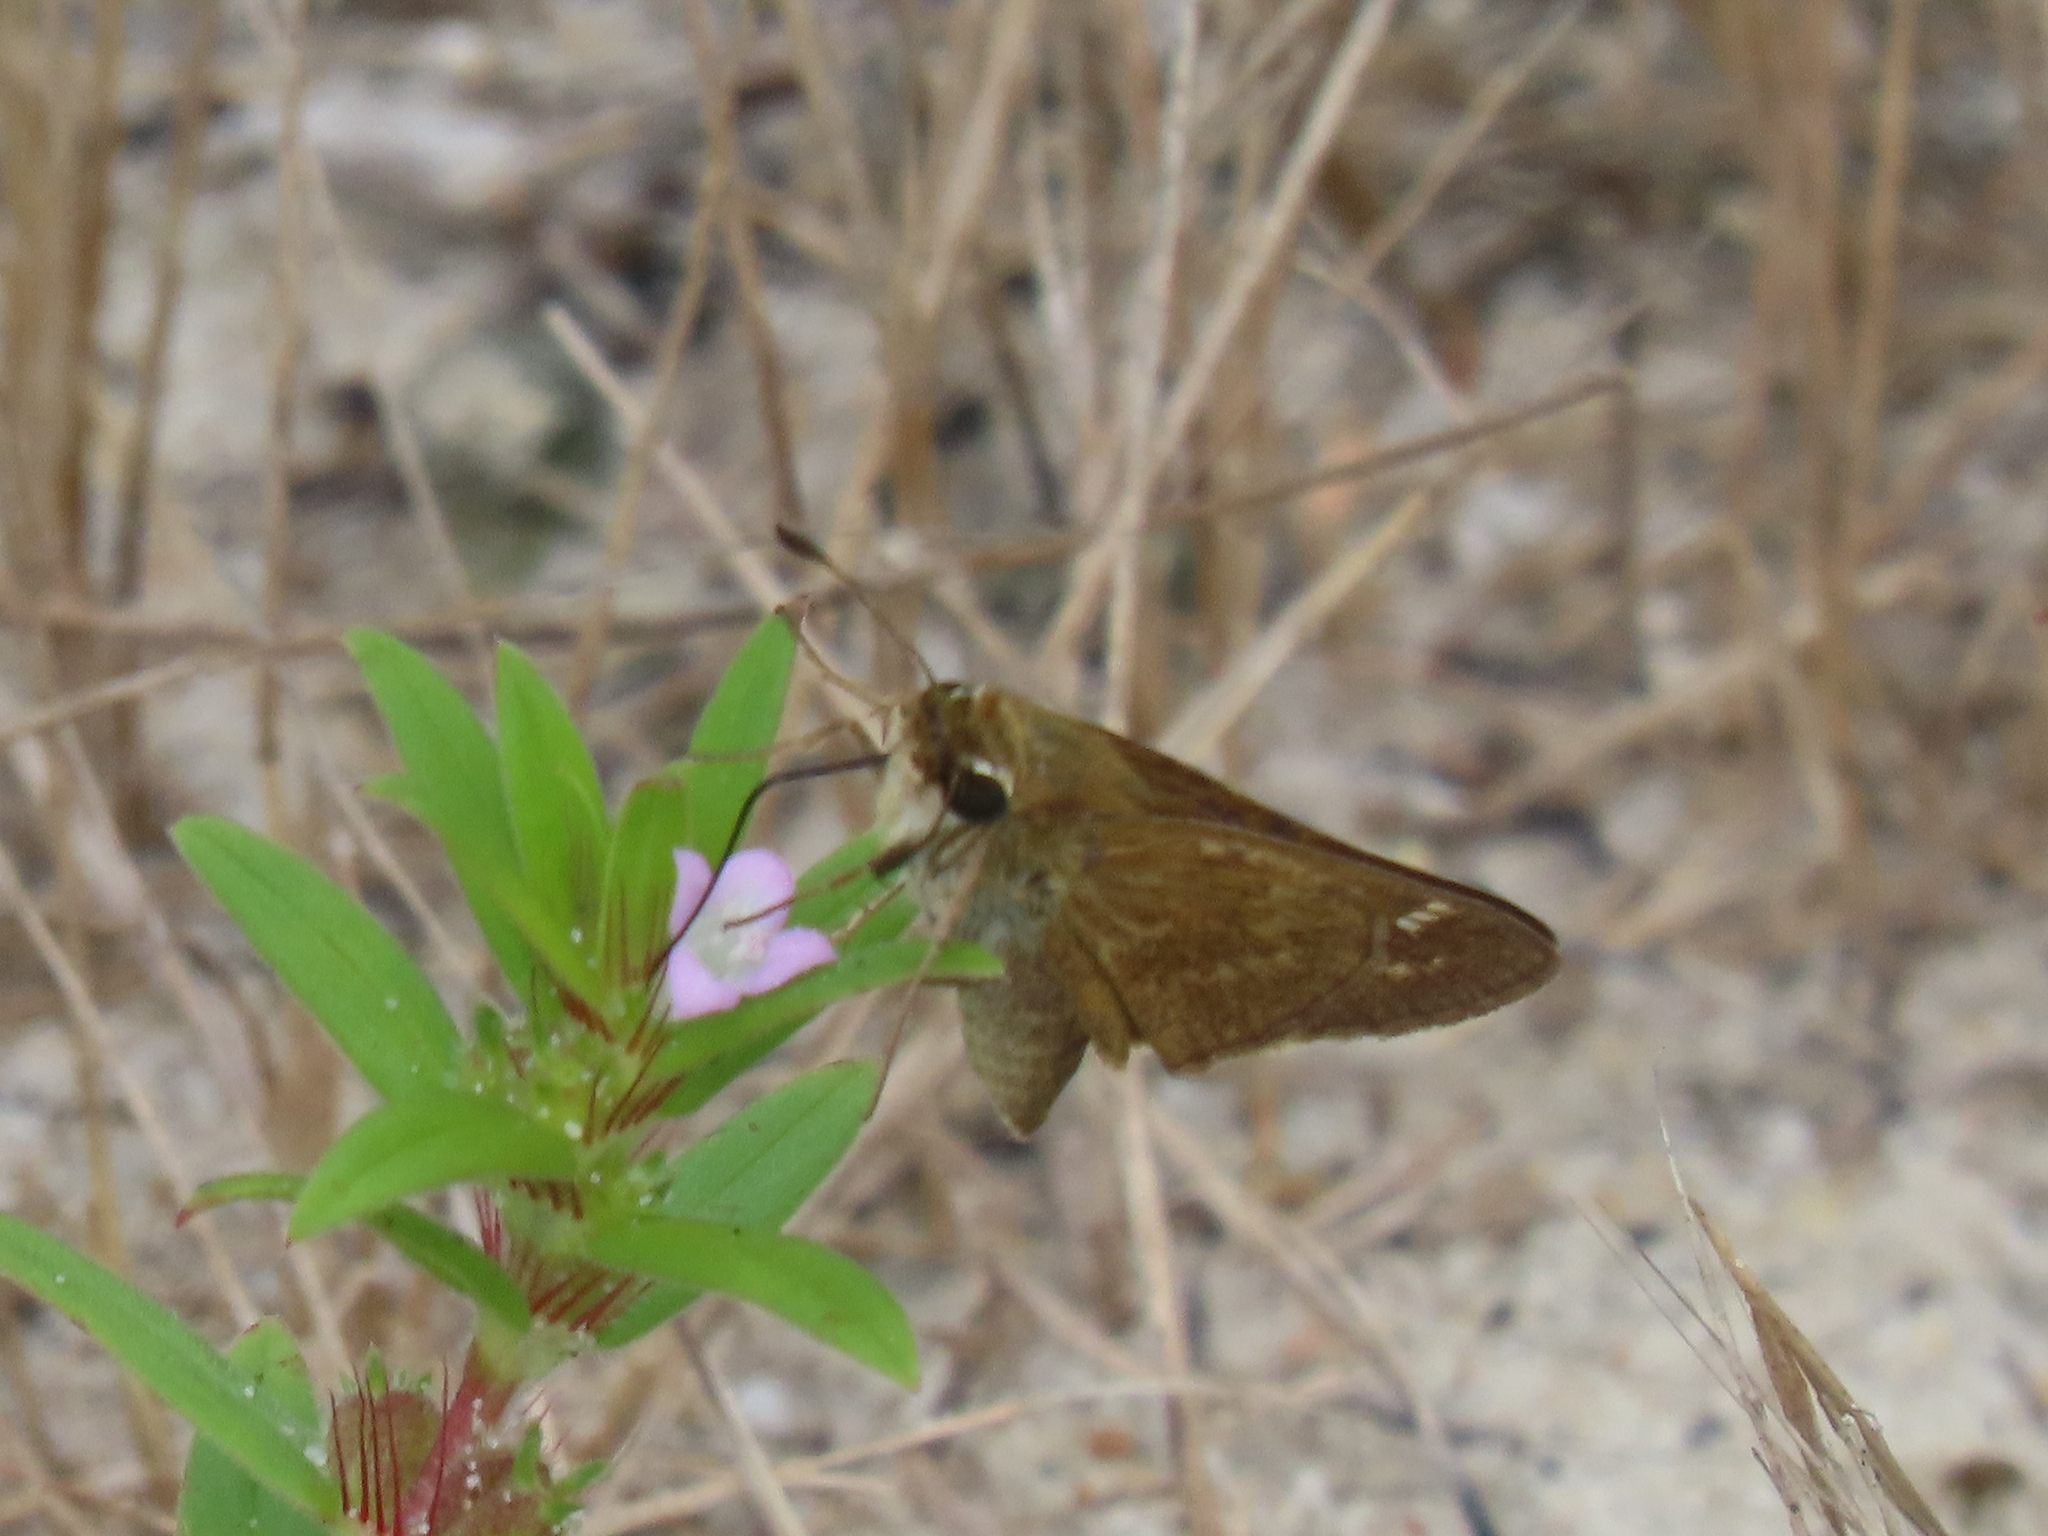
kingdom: Animalia
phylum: Arthropoda
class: Insecta
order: Lepidoptera
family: Hesperiidae
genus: Atalopedes
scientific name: Atalopedes
